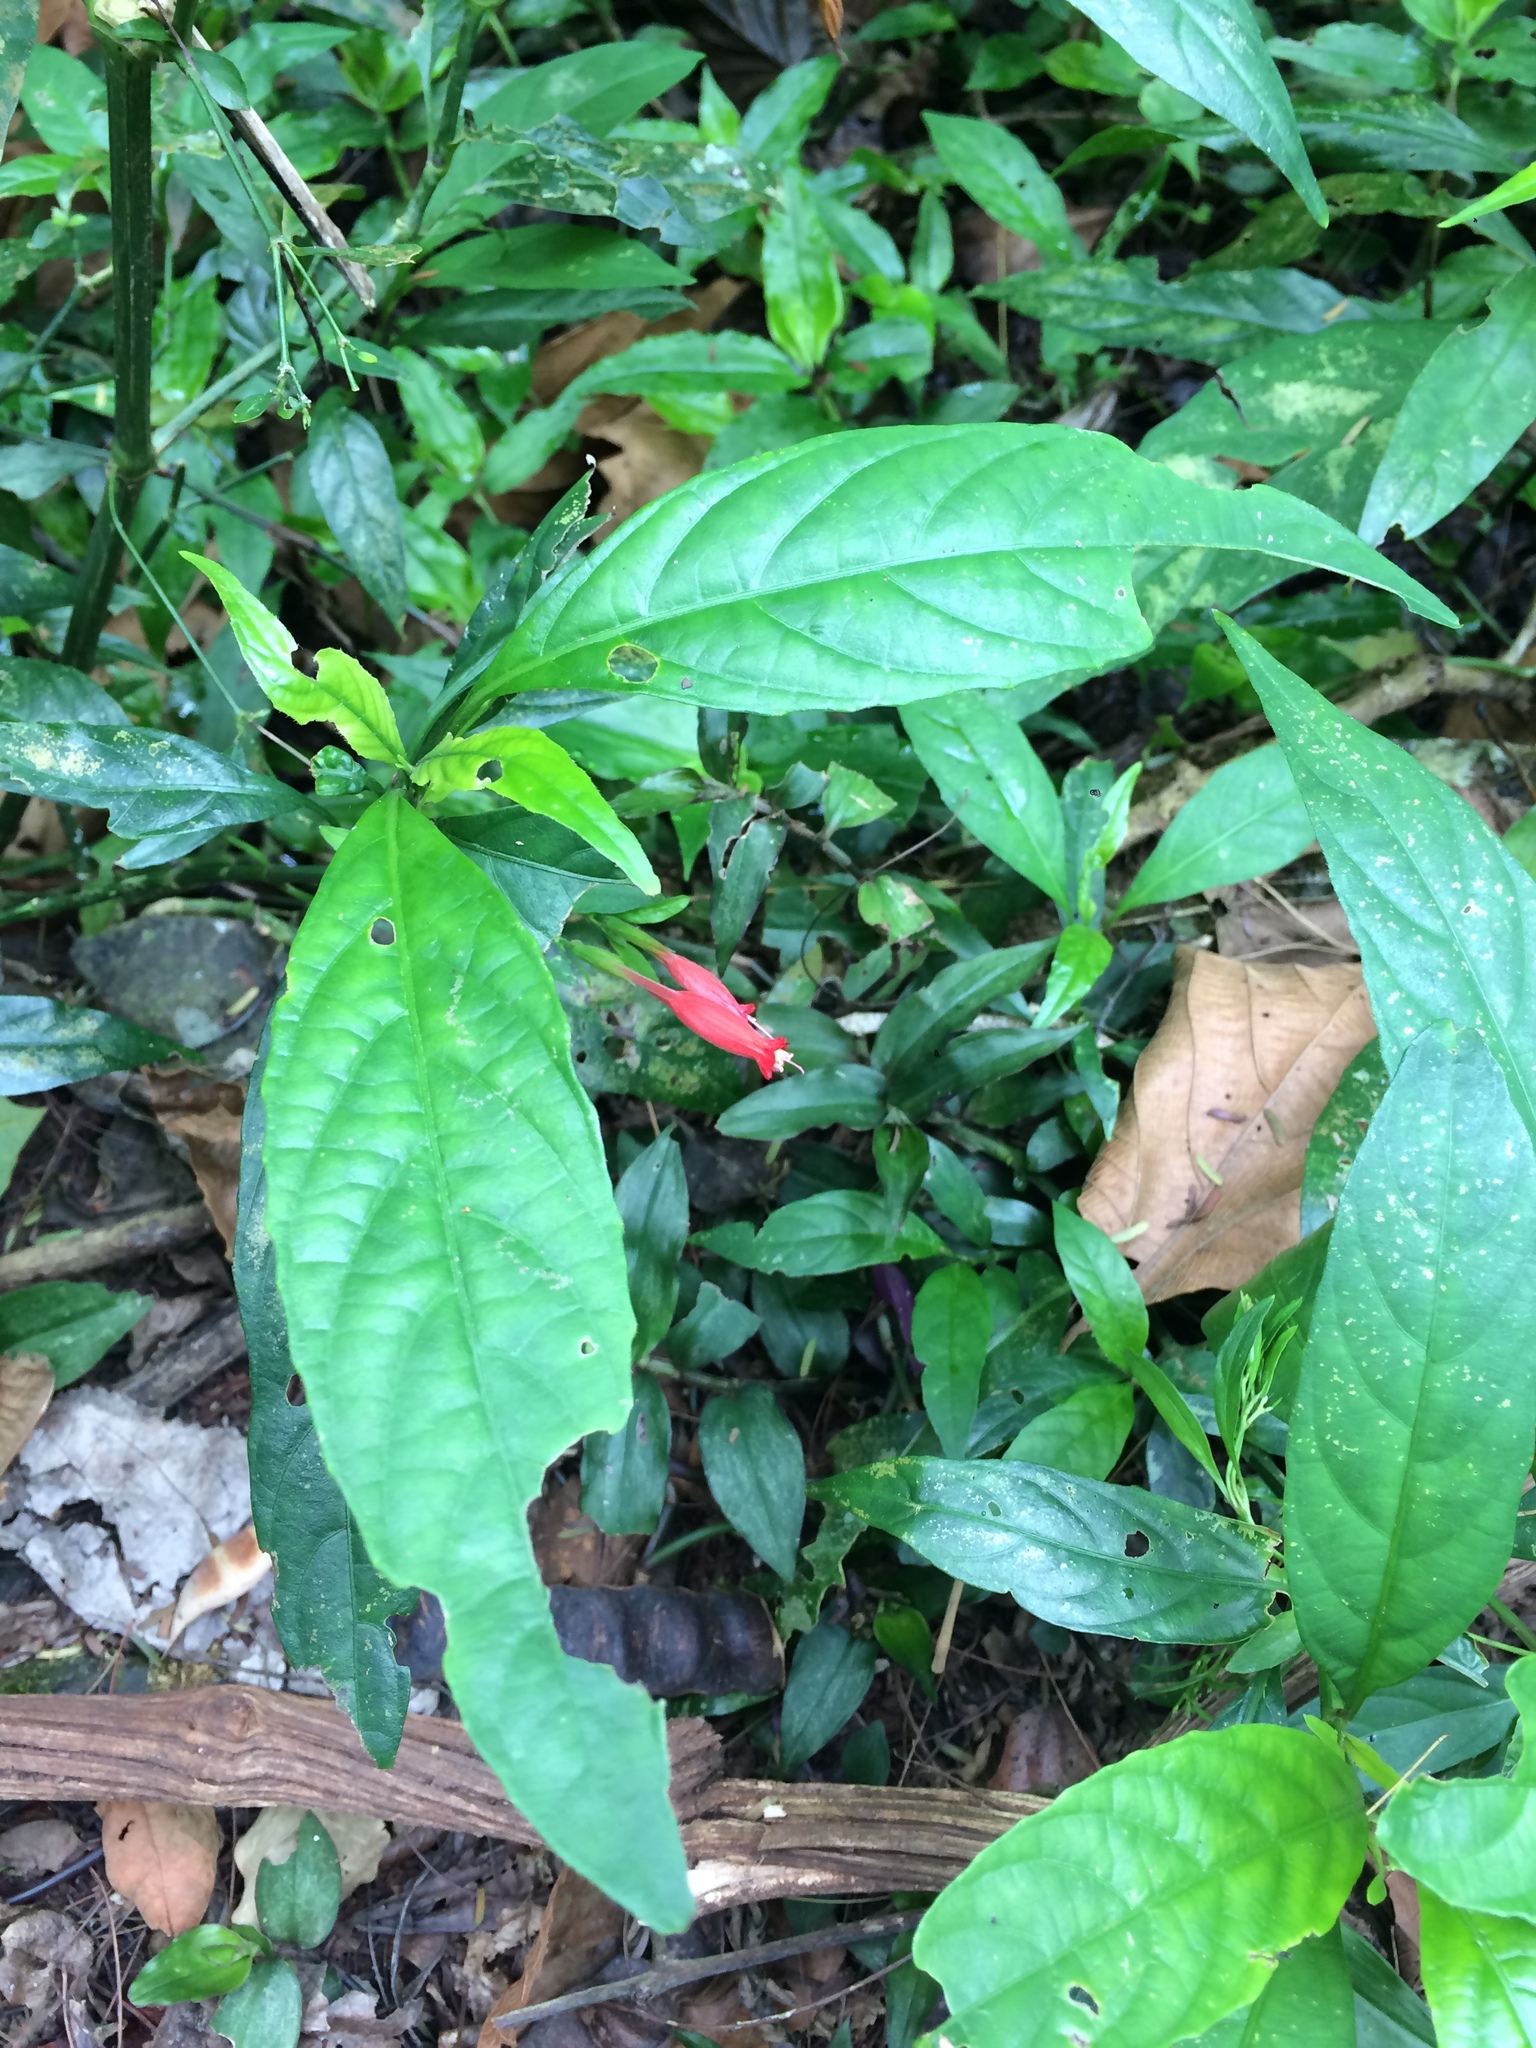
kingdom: Plantae
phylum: Tracheophyta
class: Magnoliopsida
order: Lamiales
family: Acanthaceae
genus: Ruellia
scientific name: Ruellia angustiflora
